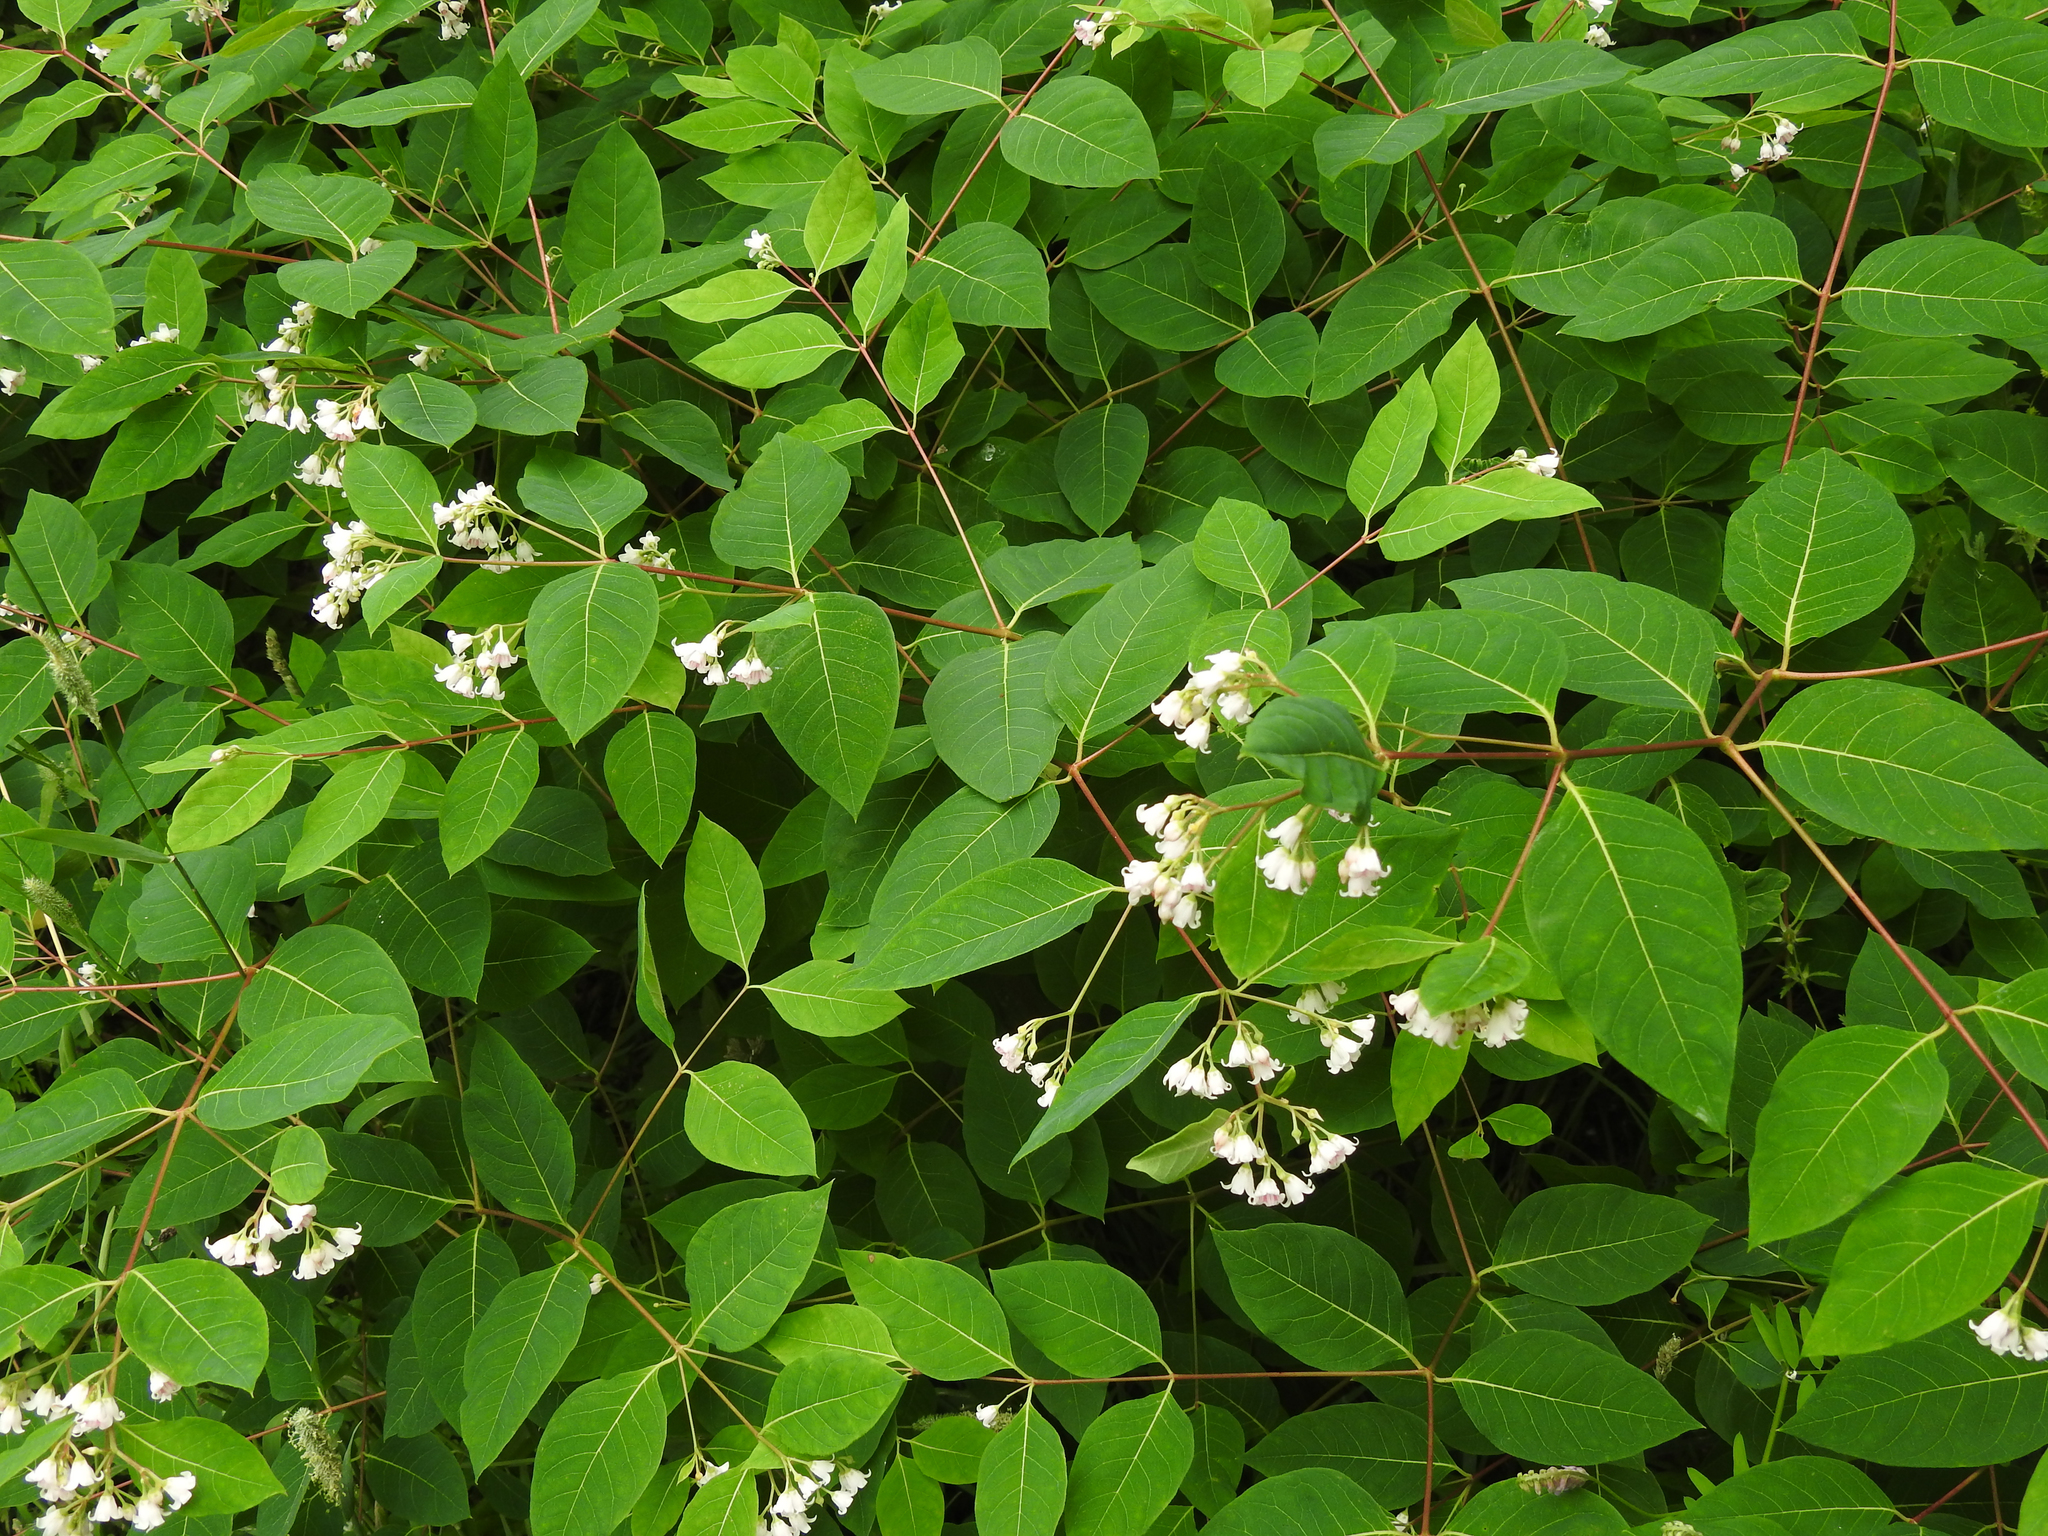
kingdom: Plantae
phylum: Tracheophyta
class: Magnoliopsida
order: Gentianales
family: Apocynaceae
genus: Apocynum
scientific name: Apocynum androsaemifolium
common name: Spreading dogbane
